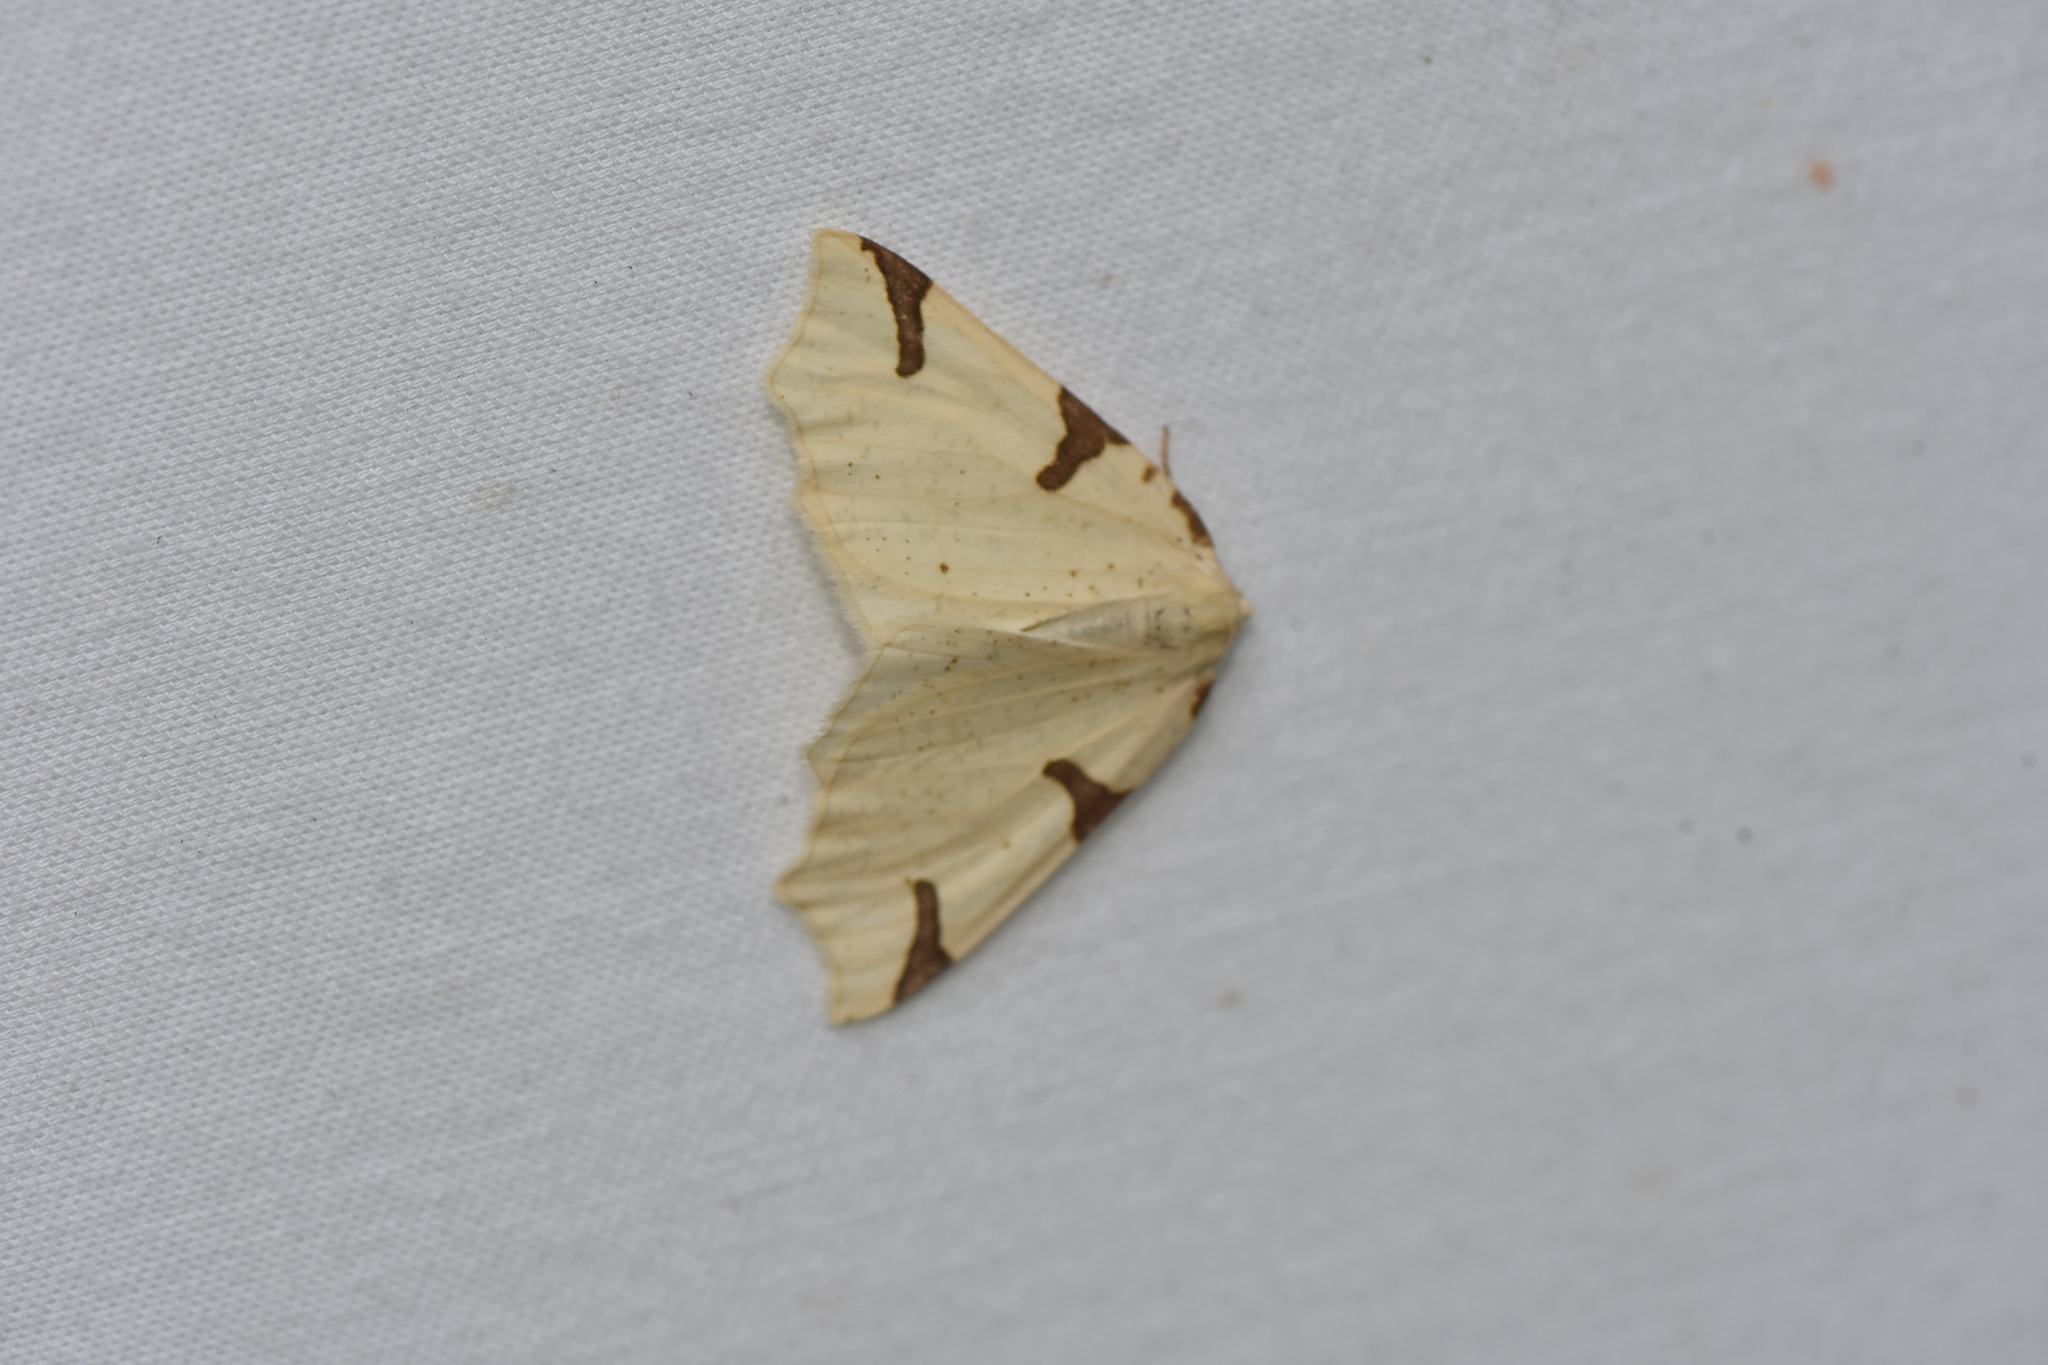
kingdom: Animalia
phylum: Arthropoda
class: Insecta
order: Lepidoptera
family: Geometridae
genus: Neoterpes
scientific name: Neoterpes trianguliferata
